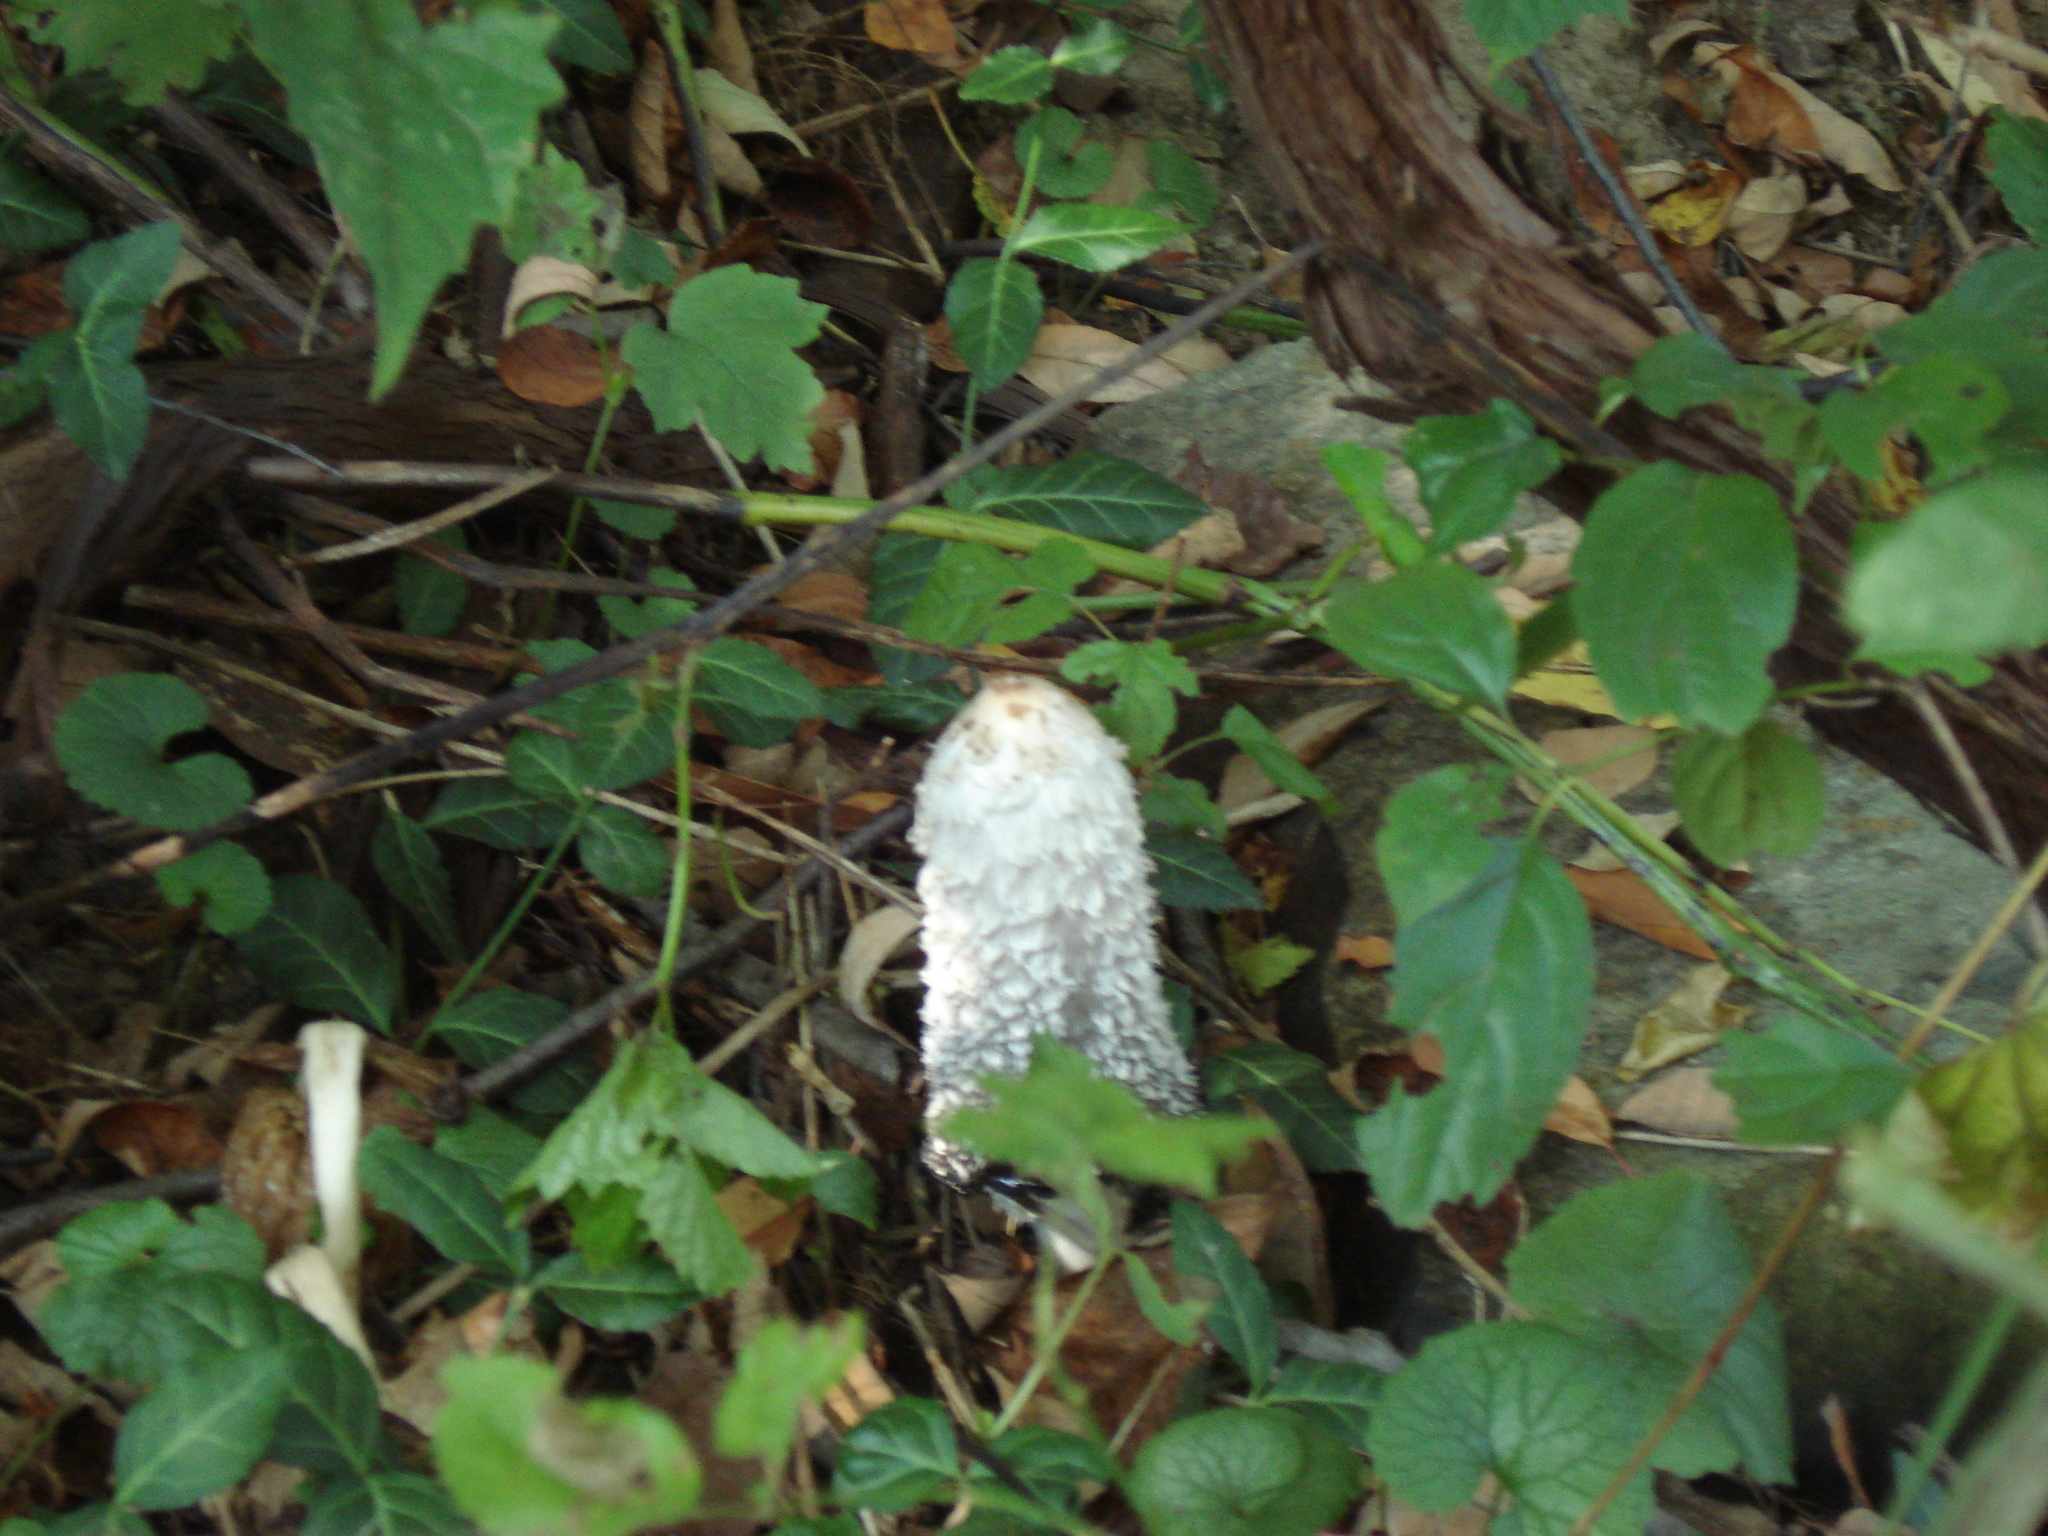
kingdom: Fungi
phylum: Basidiomycota
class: Agaricomycetes
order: Agaricales
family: Agaricaceae
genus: Coprinus
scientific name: Coprinus comatus
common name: Lawyer's wig
